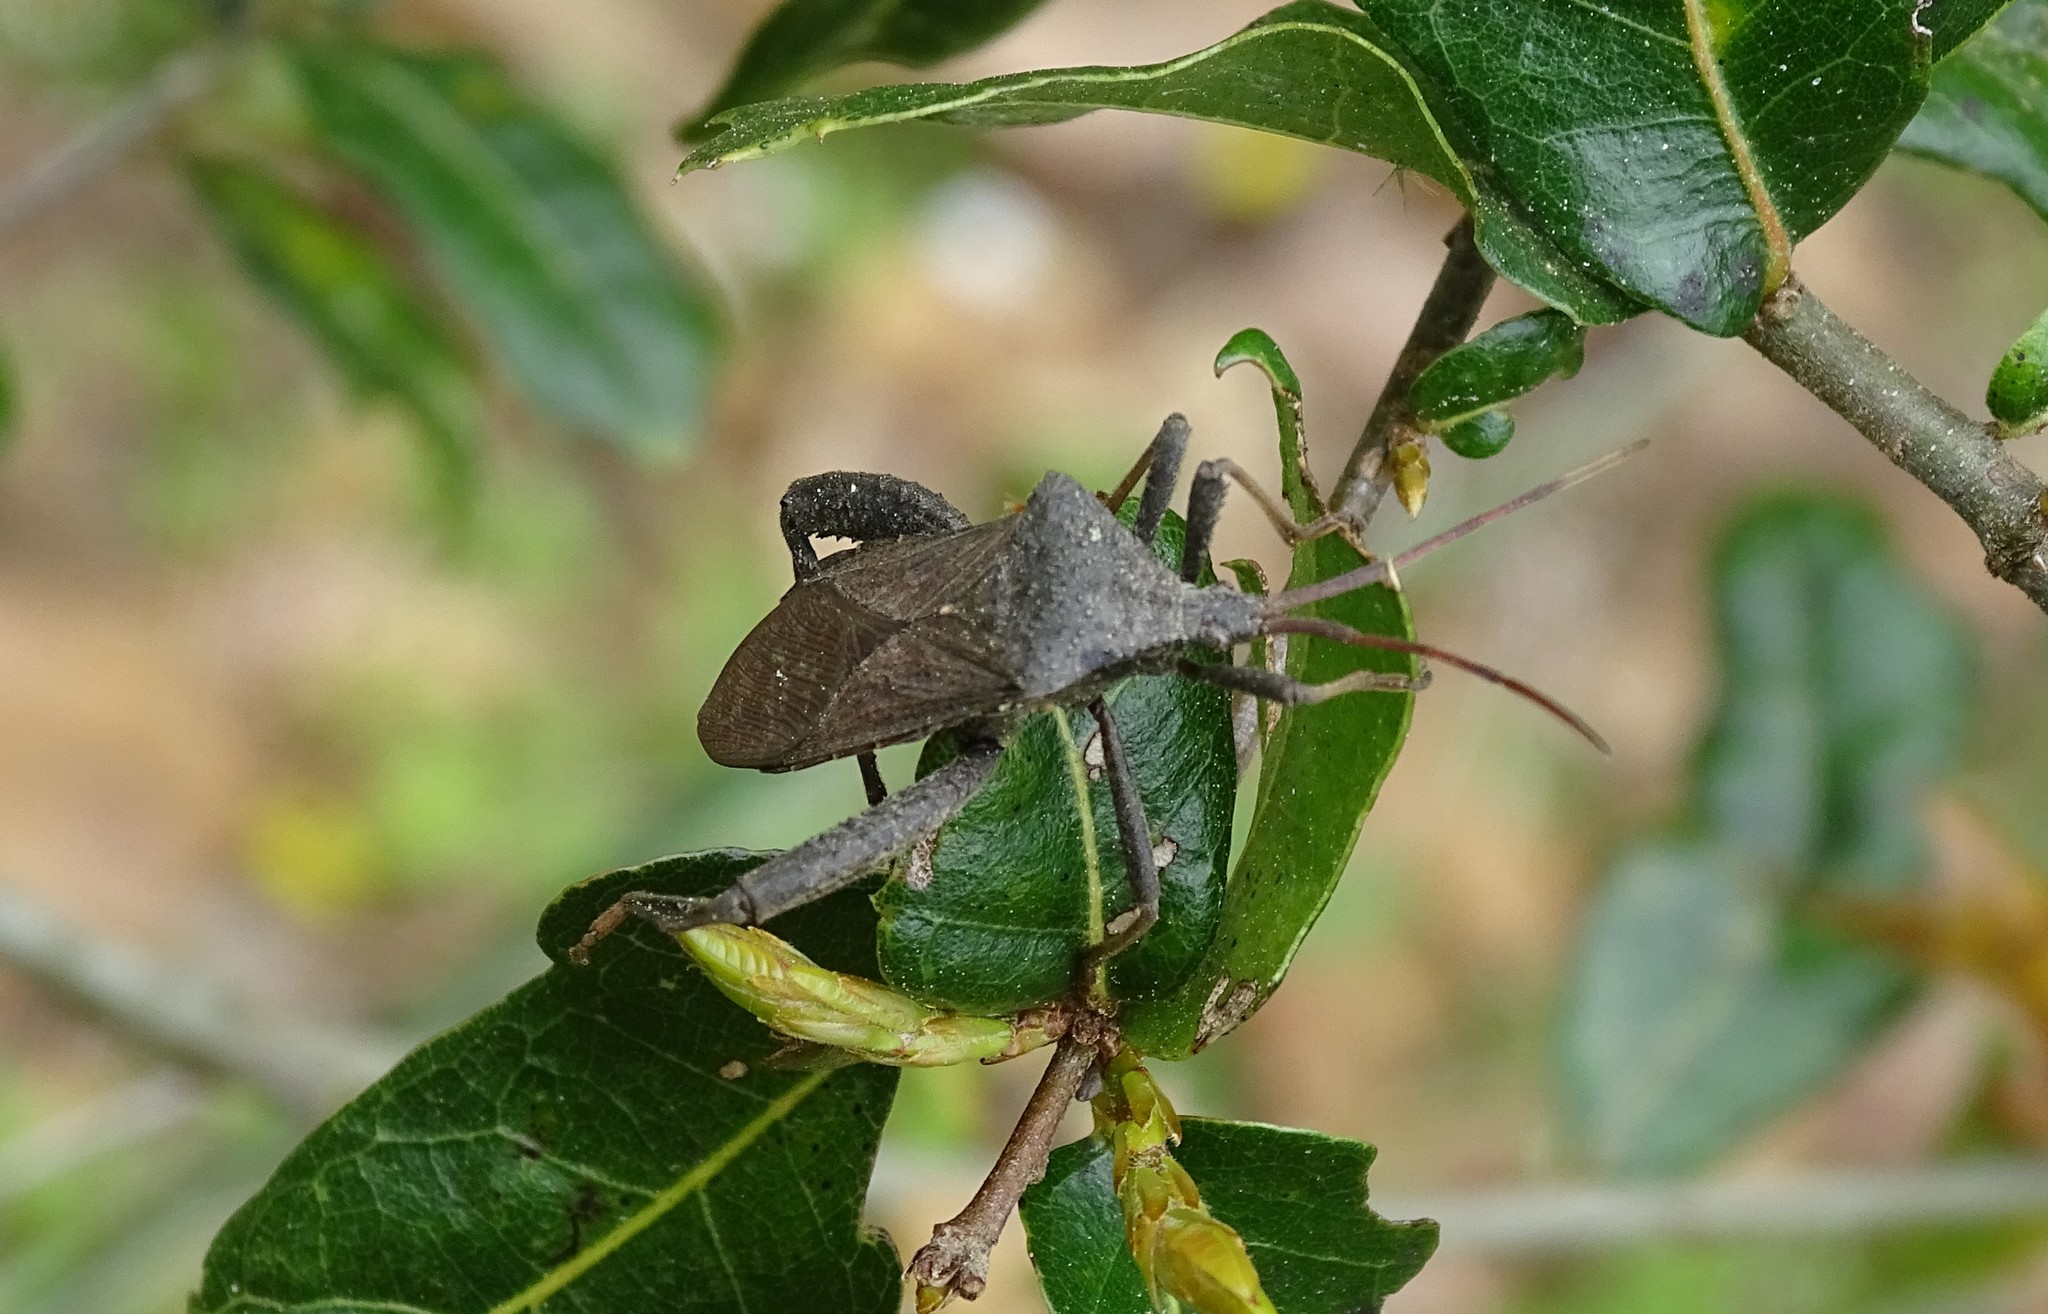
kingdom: Animalia
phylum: Arthropoda
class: Insecta
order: Hemiptera
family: Coreidae
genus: Acanthocephala
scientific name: Acanthocephala femorata
